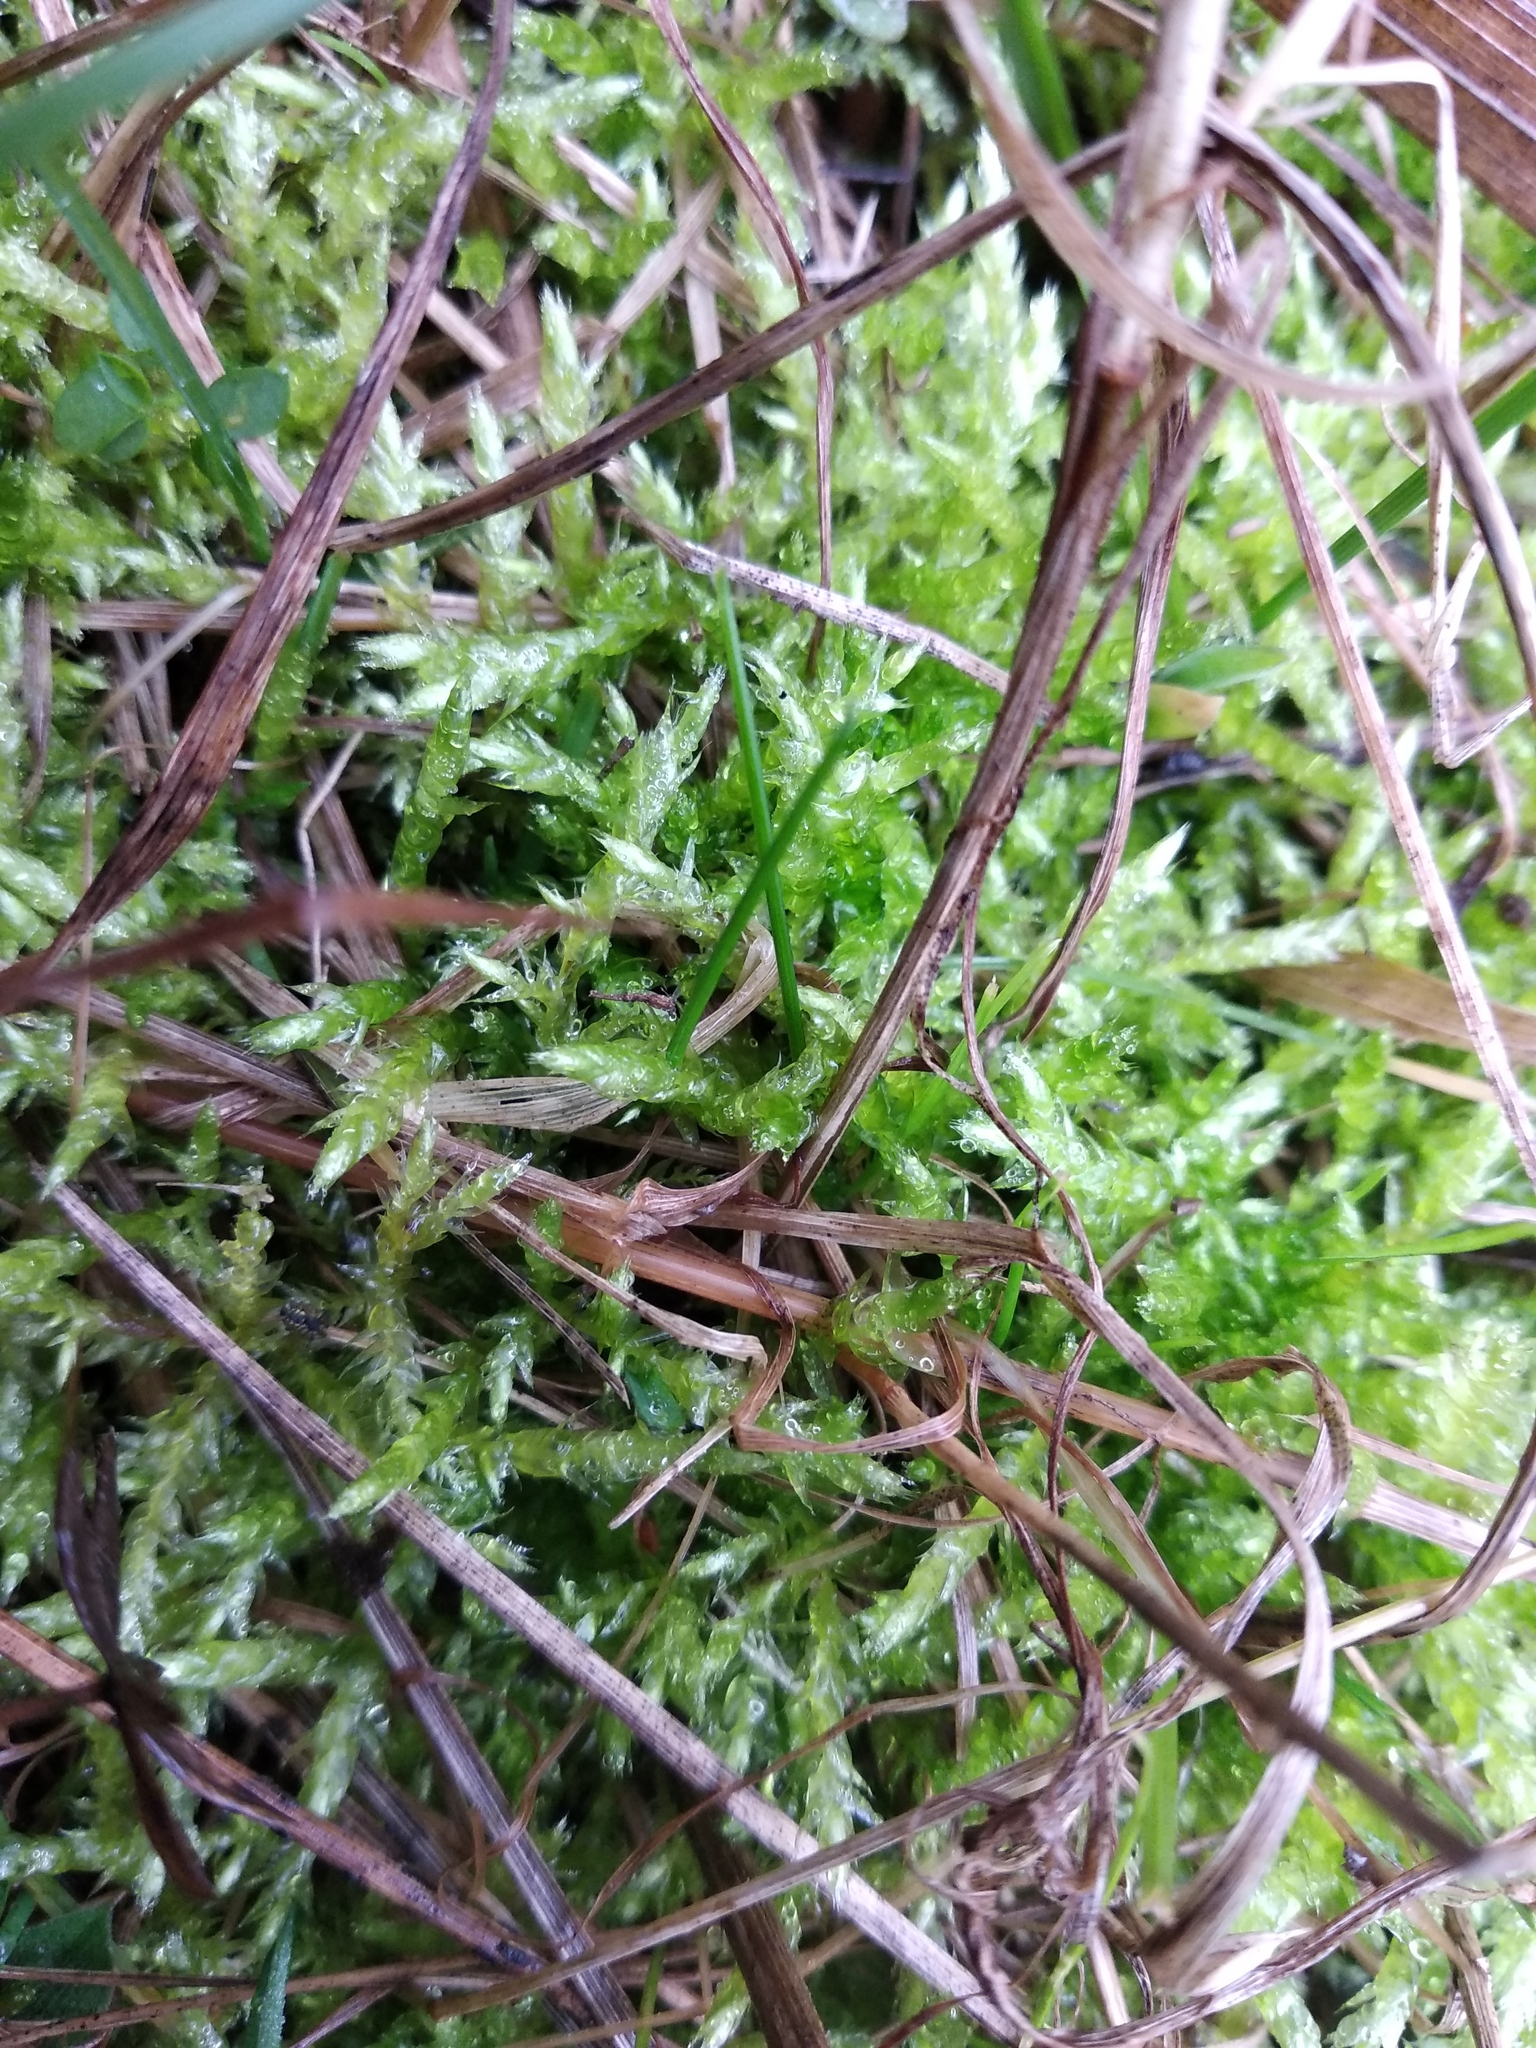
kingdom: Plantae
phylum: Bryophyta
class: Bryopsida
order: Hypnales
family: Brachytheciaceae
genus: Brachythecium
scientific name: Brachythecium rutabulum
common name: Rough-stalked feather-moss
